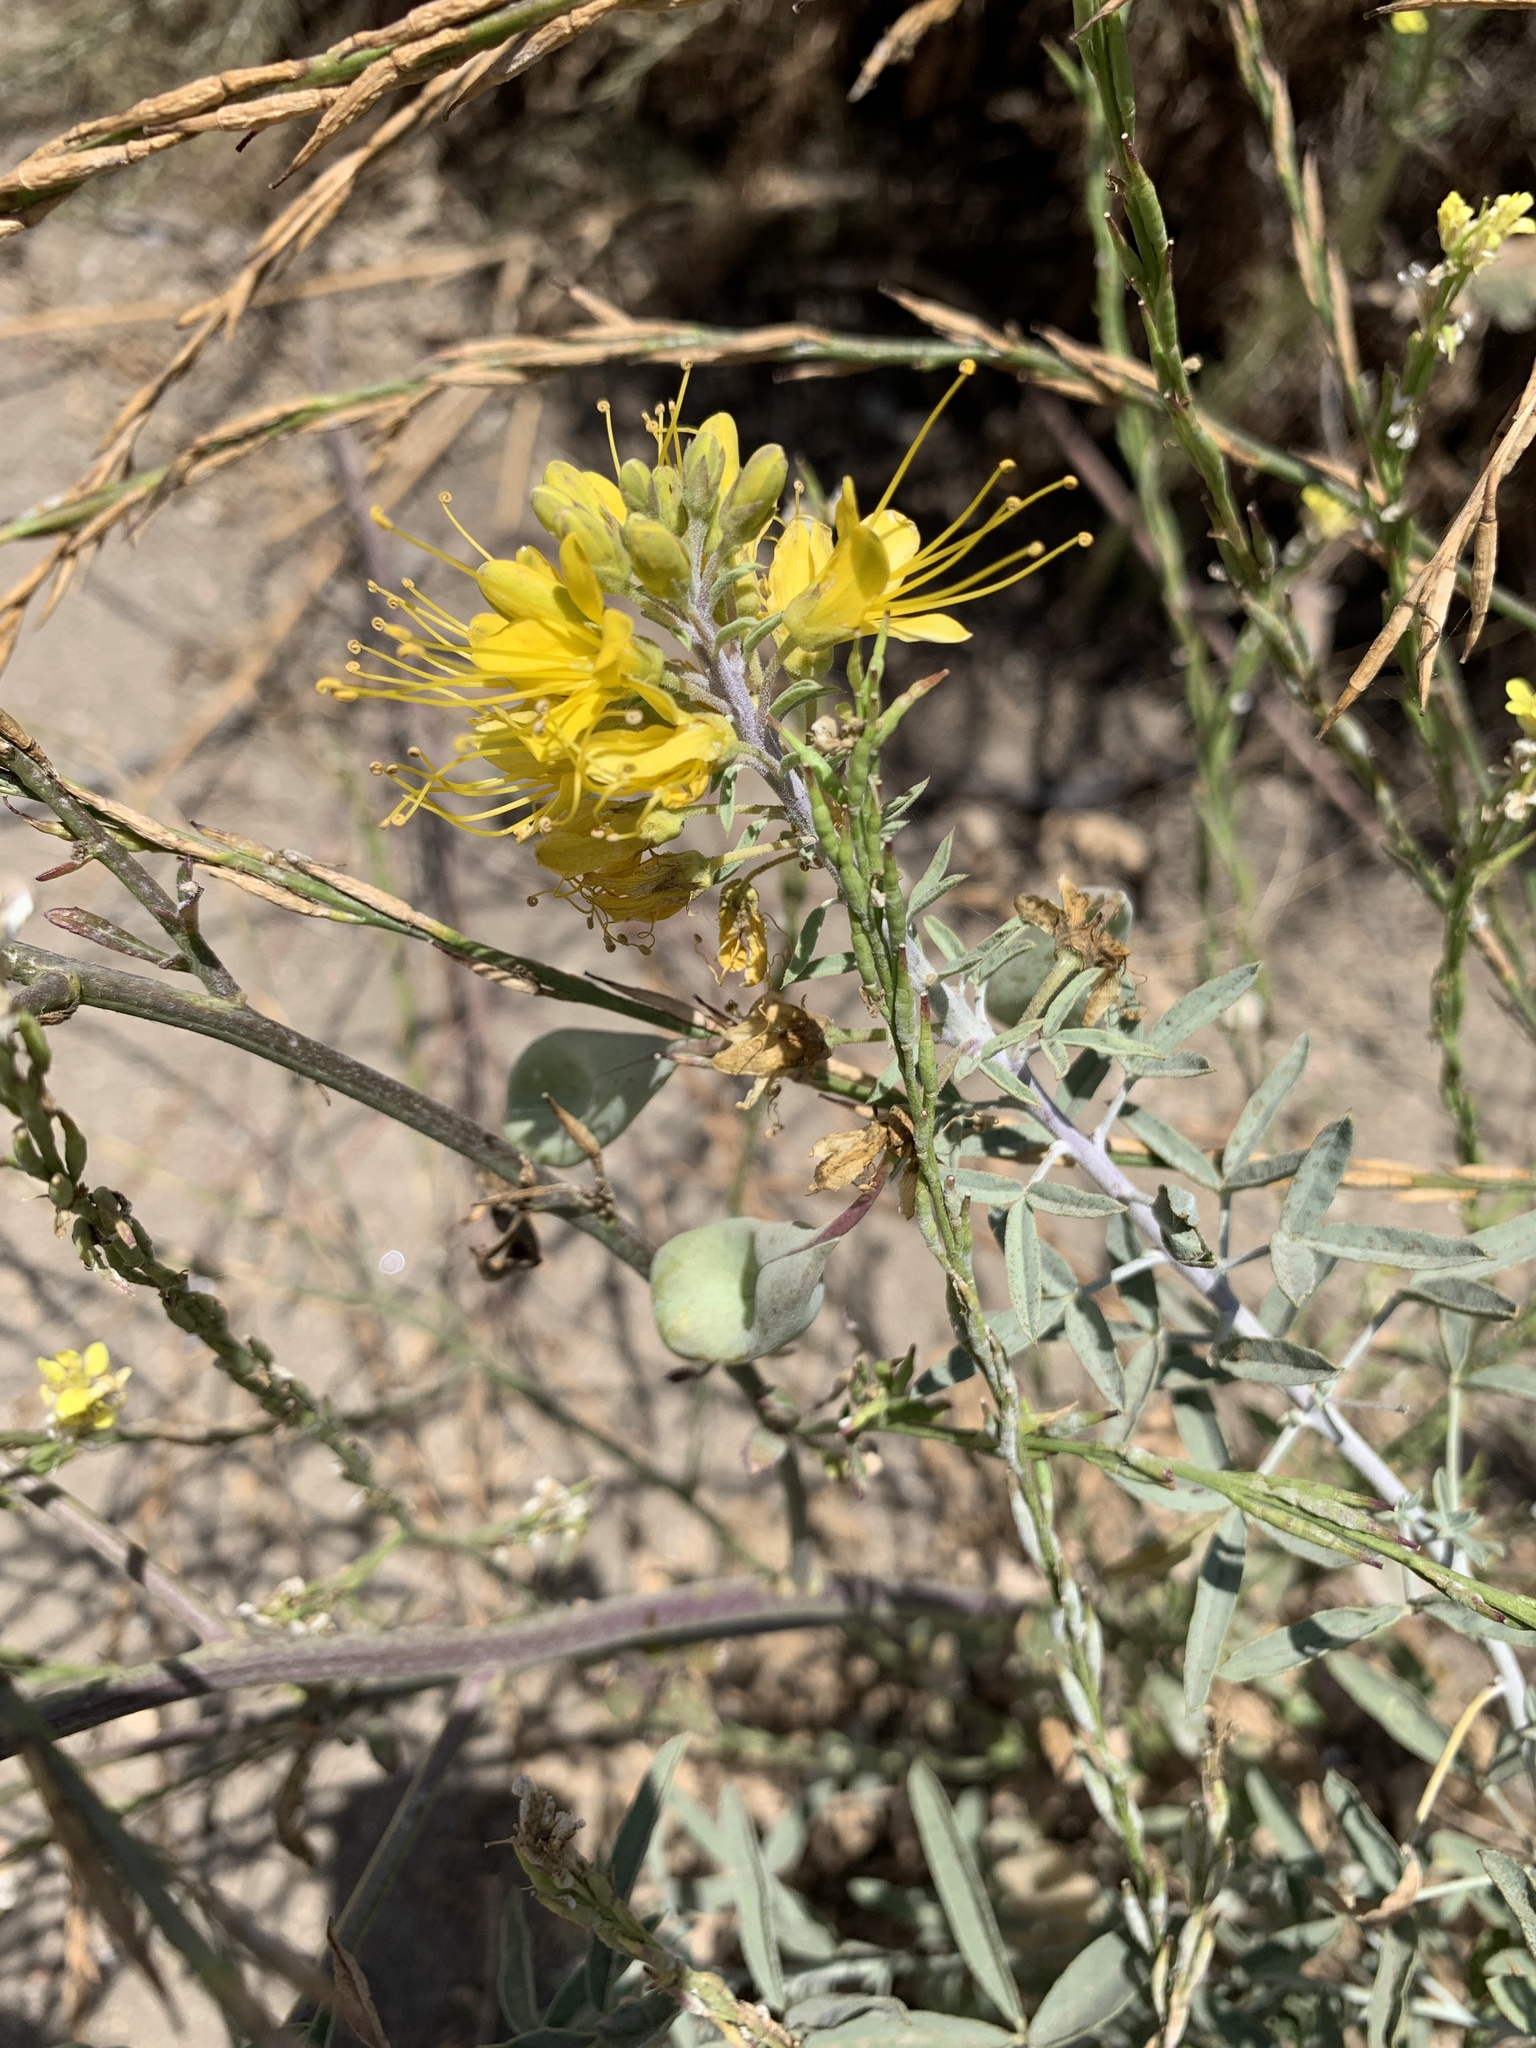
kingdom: Plantae
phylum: Tracheophyta
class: Magnoliopsida
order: Brassicales
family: Cleomaceae
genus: Cleomella
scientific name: Cleomella arborea
